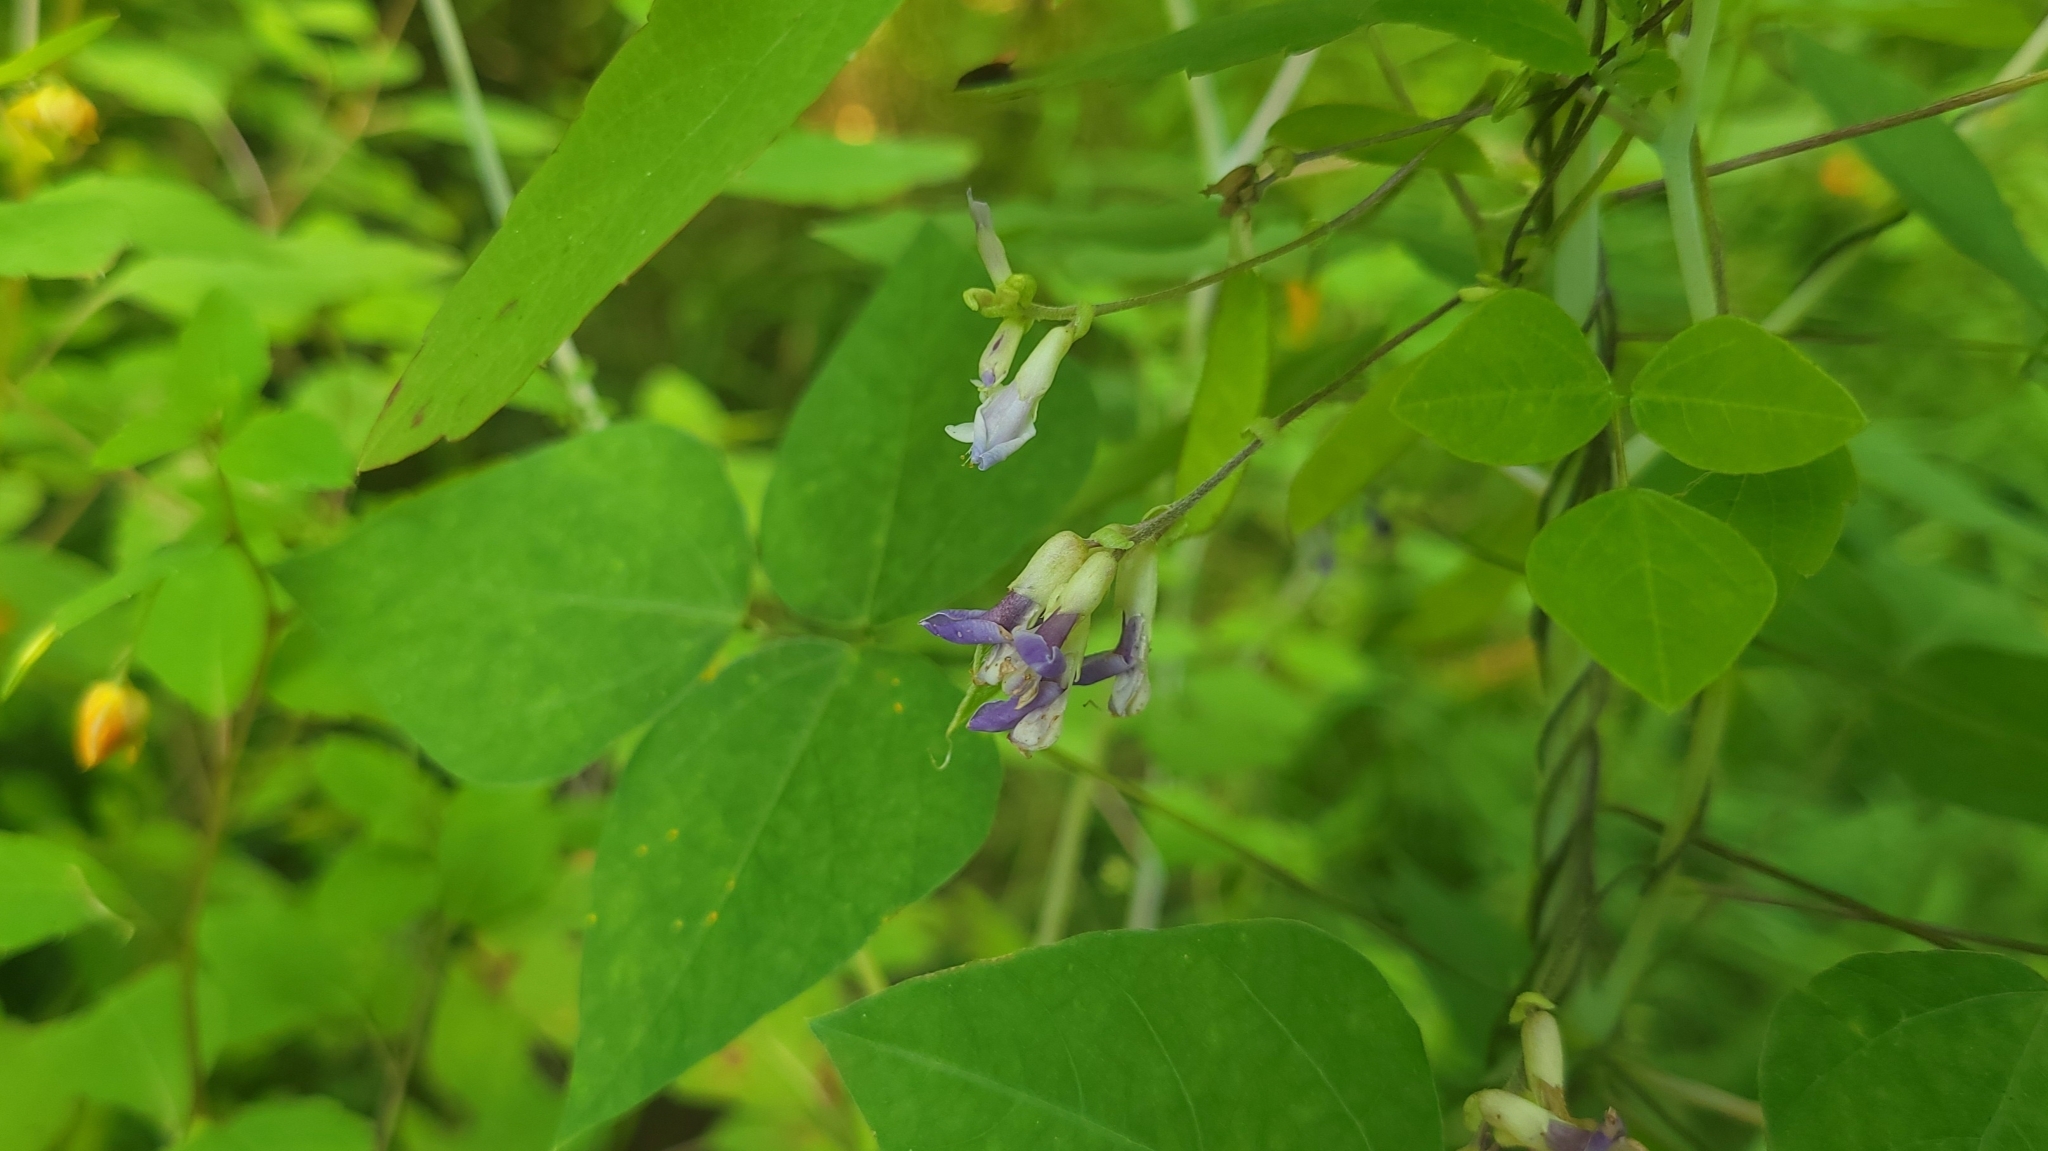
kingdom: Plantae
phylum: Tracheophyta
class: Magnoliopsida
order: Fabales
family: Fabaceae
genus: Amphicarpaea
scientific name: Amphicarpaea bracteata
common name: American hog peanut
